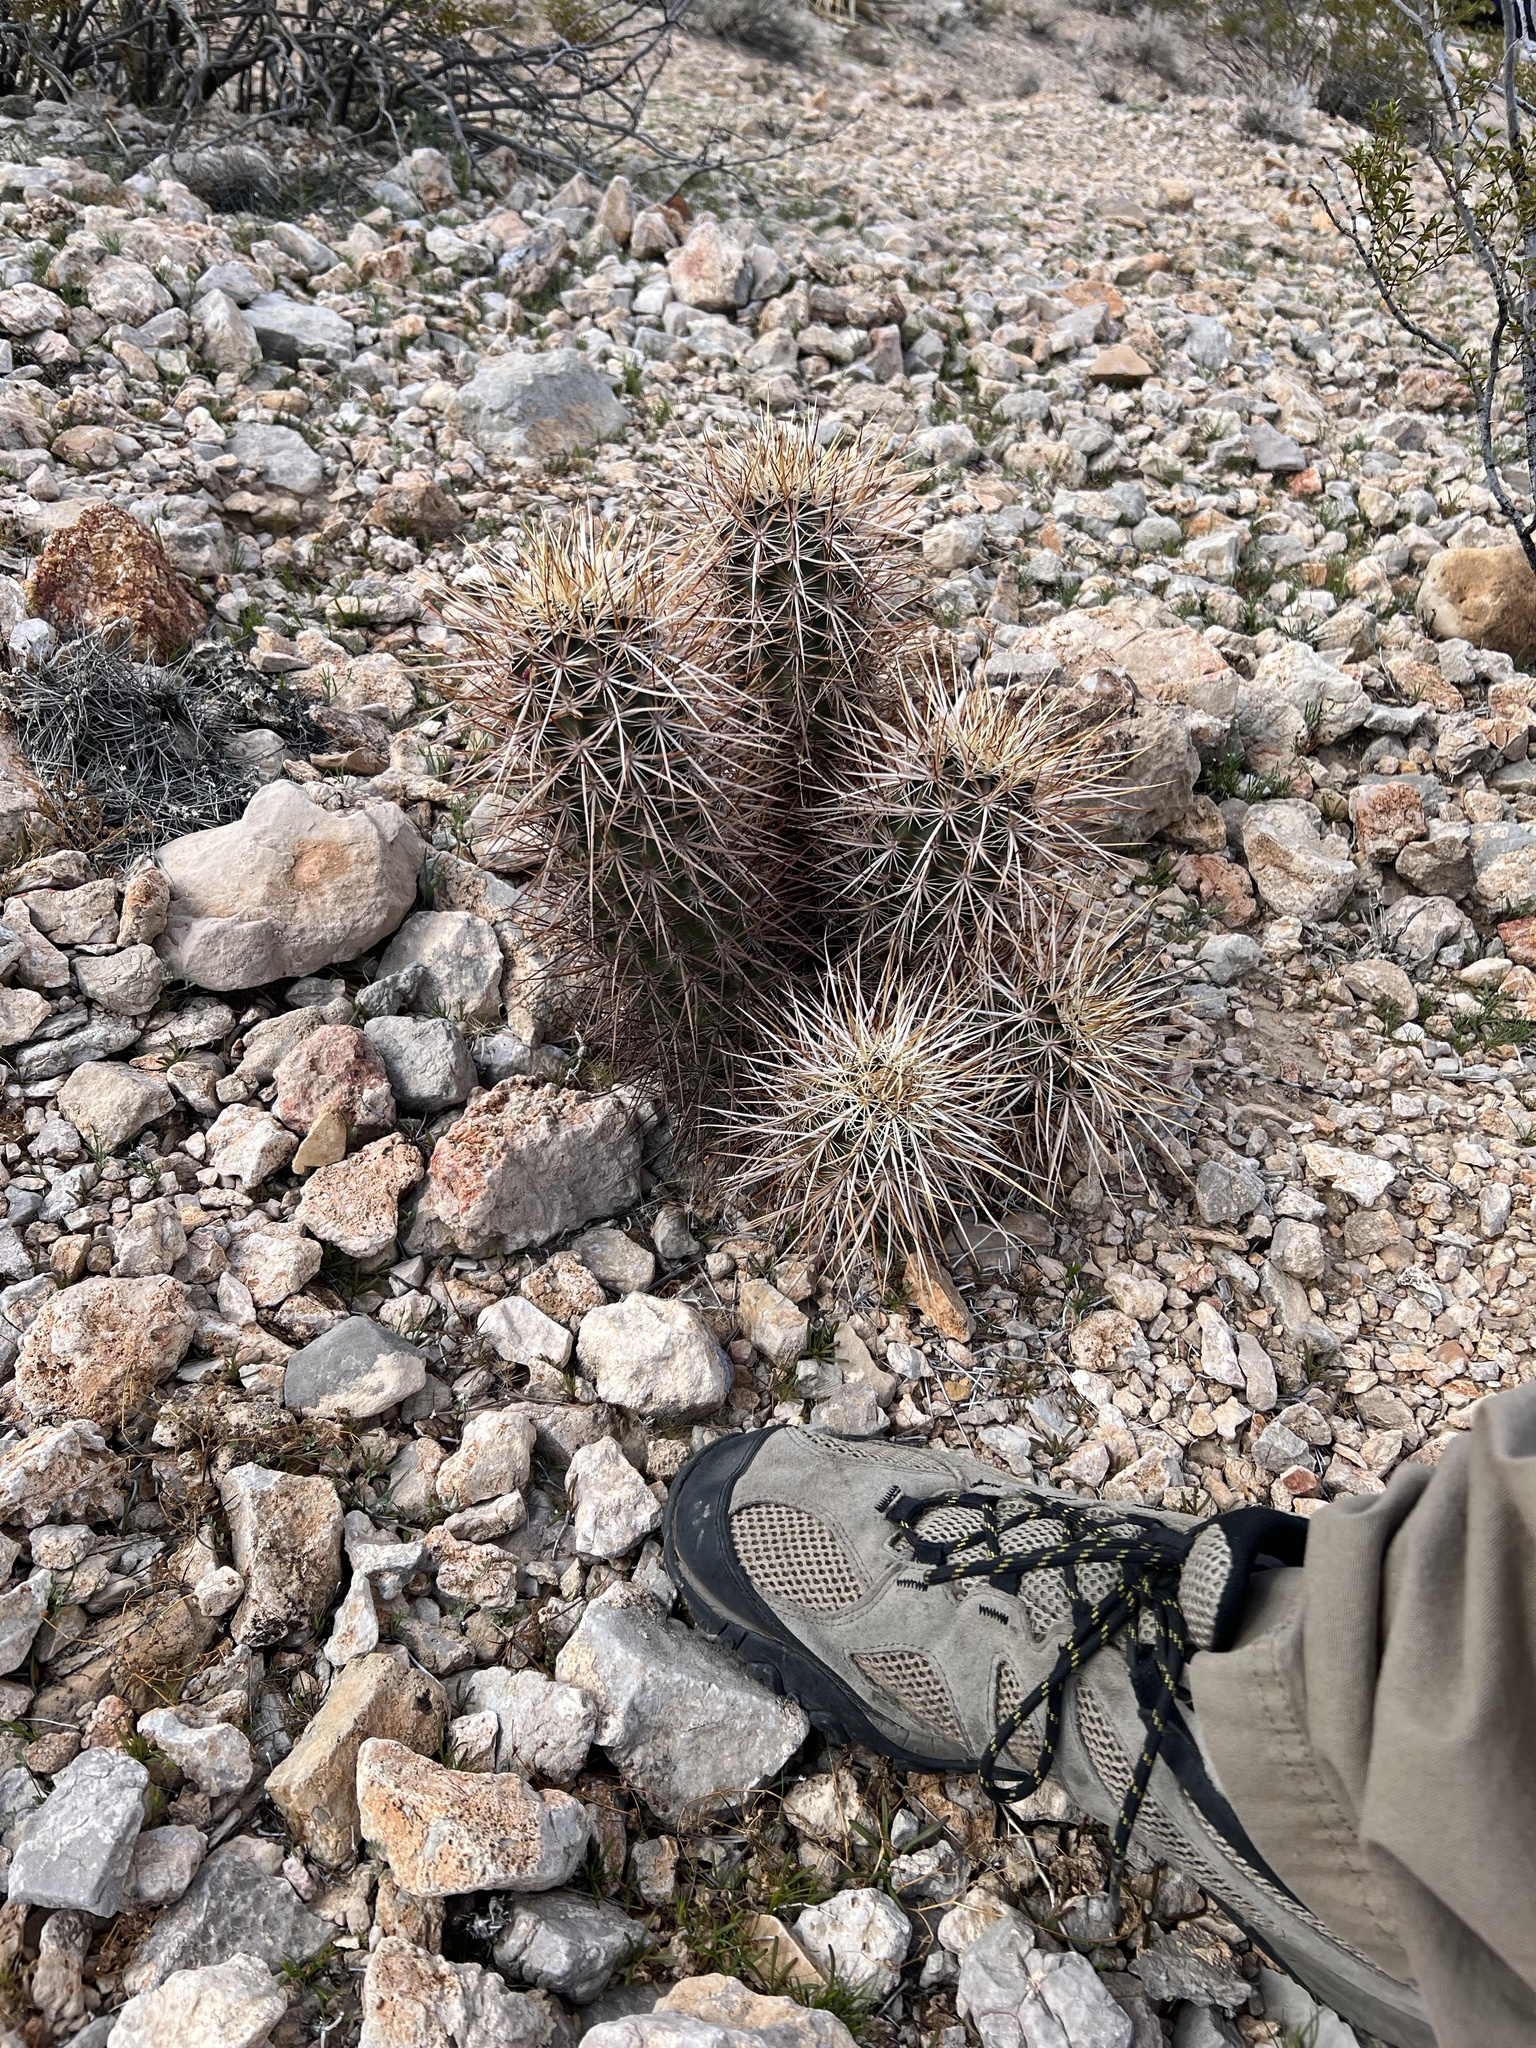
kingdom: Plantae
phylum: Tracheophyta
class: Magnoliopsida
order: Caryophyllales
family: Cactaceae
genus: Echinocereus
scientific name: Echinocereus engelmannii
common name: Engelmann's hedgehog cactus
